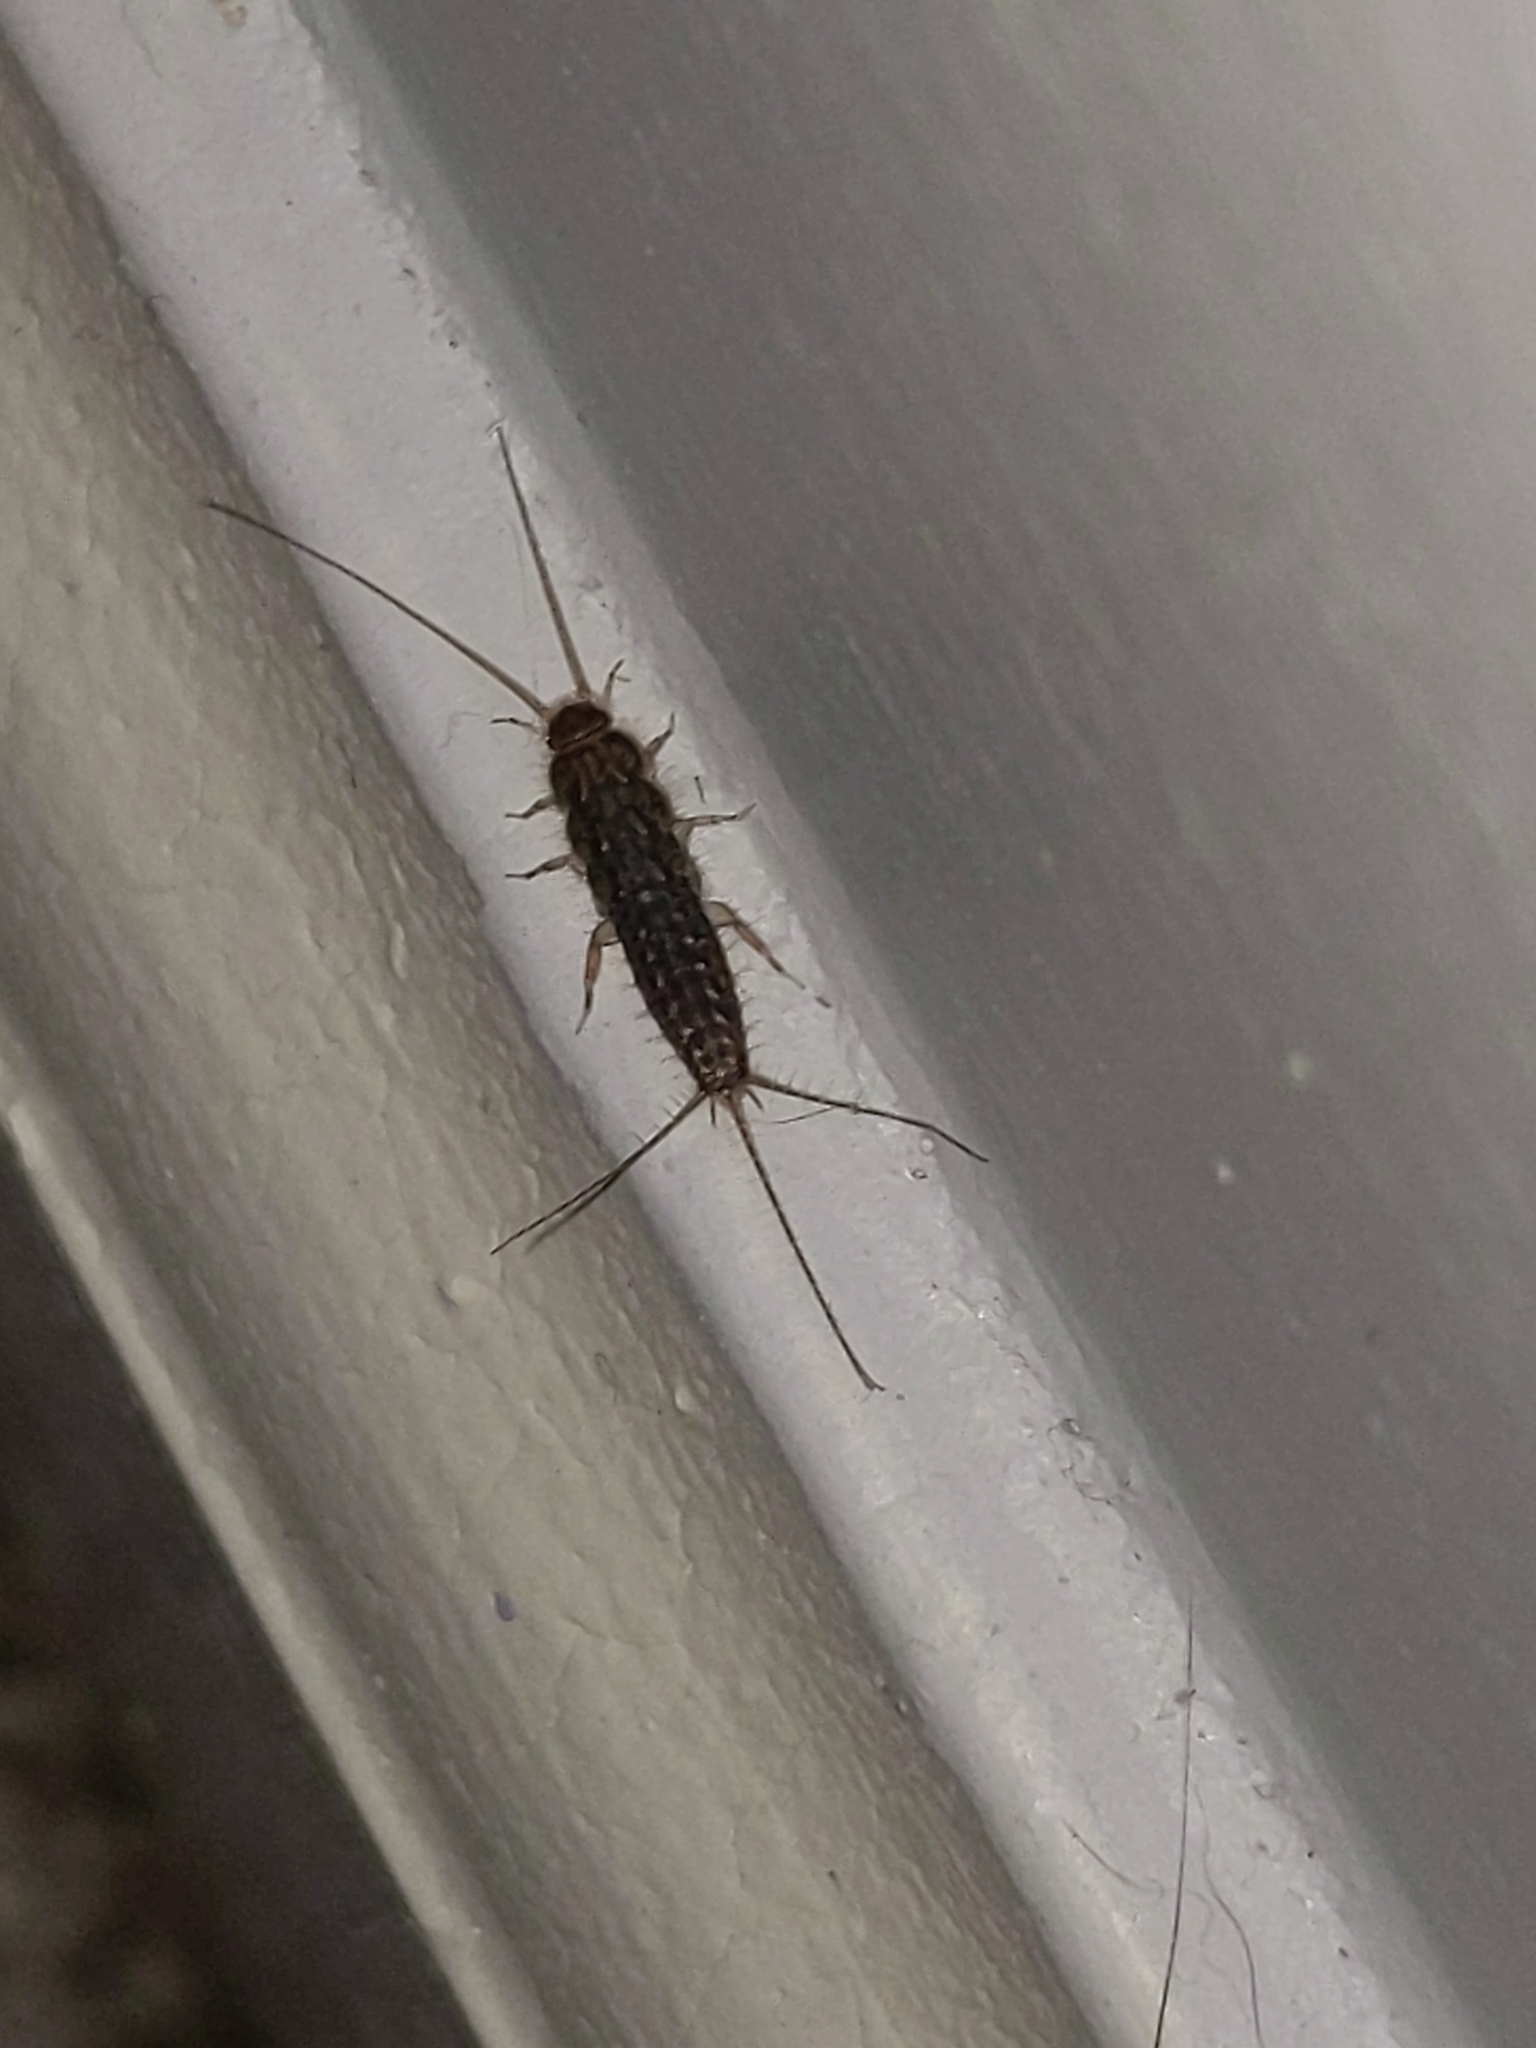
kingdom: Animalia
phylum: Arthropoda
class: Insecta
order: Zygentoma
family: Lepismatidae
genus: Ctenolepisma
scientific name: Ctenolepisma lineata
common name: Four-lined silverfish
